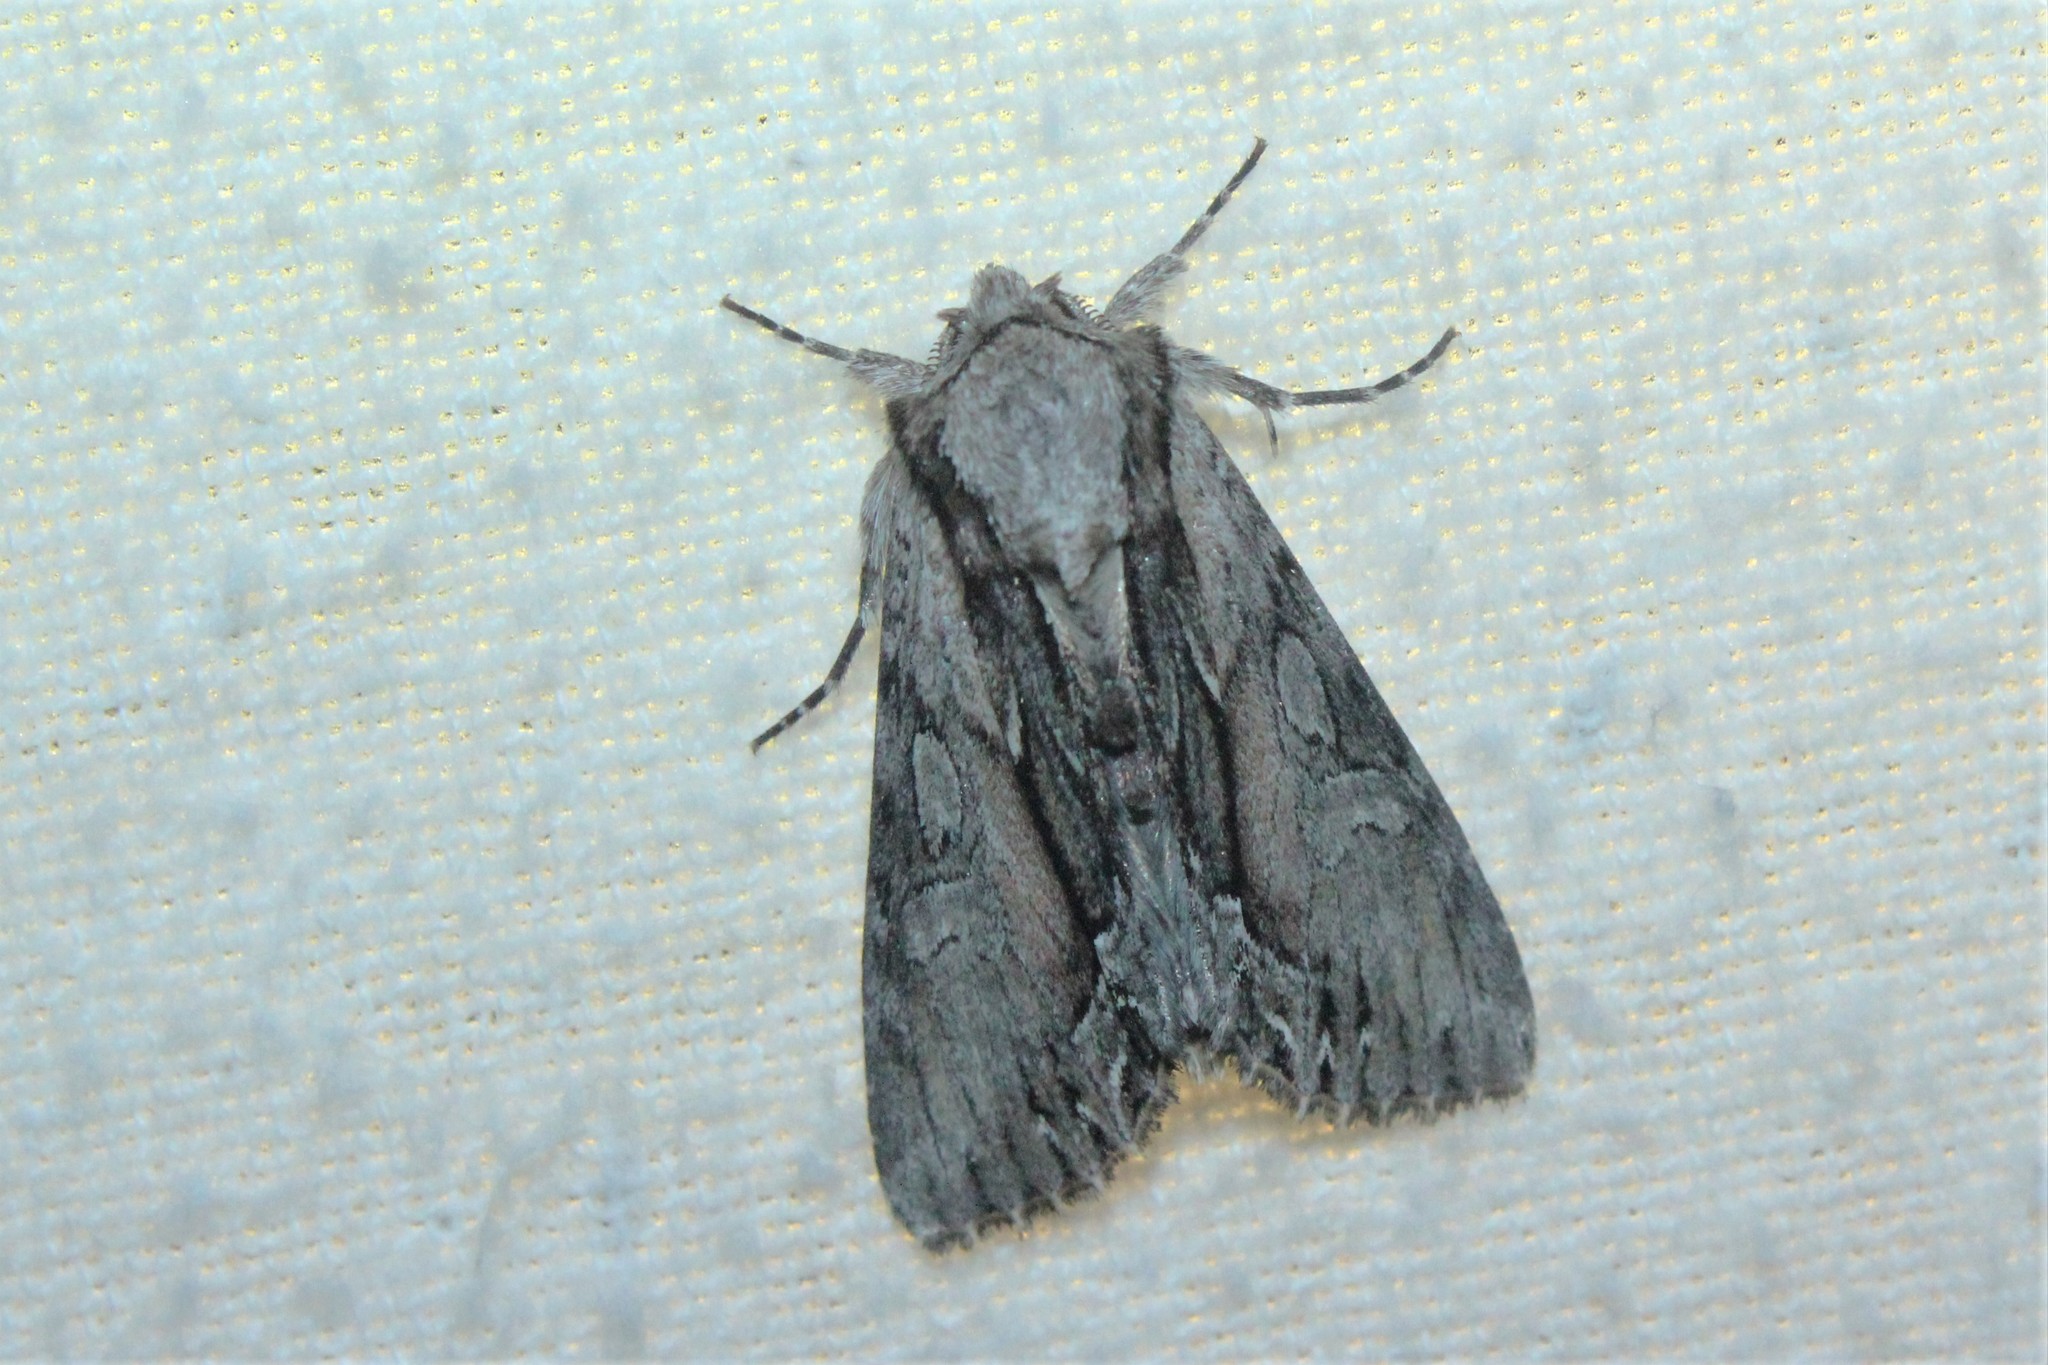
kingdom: Animalia
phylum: Arthropoda
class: Insecta
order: Lepidoptera
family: Noctuidae
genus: Hyppa
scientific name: Hyppa xylinoides
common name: Common hyppa moth
